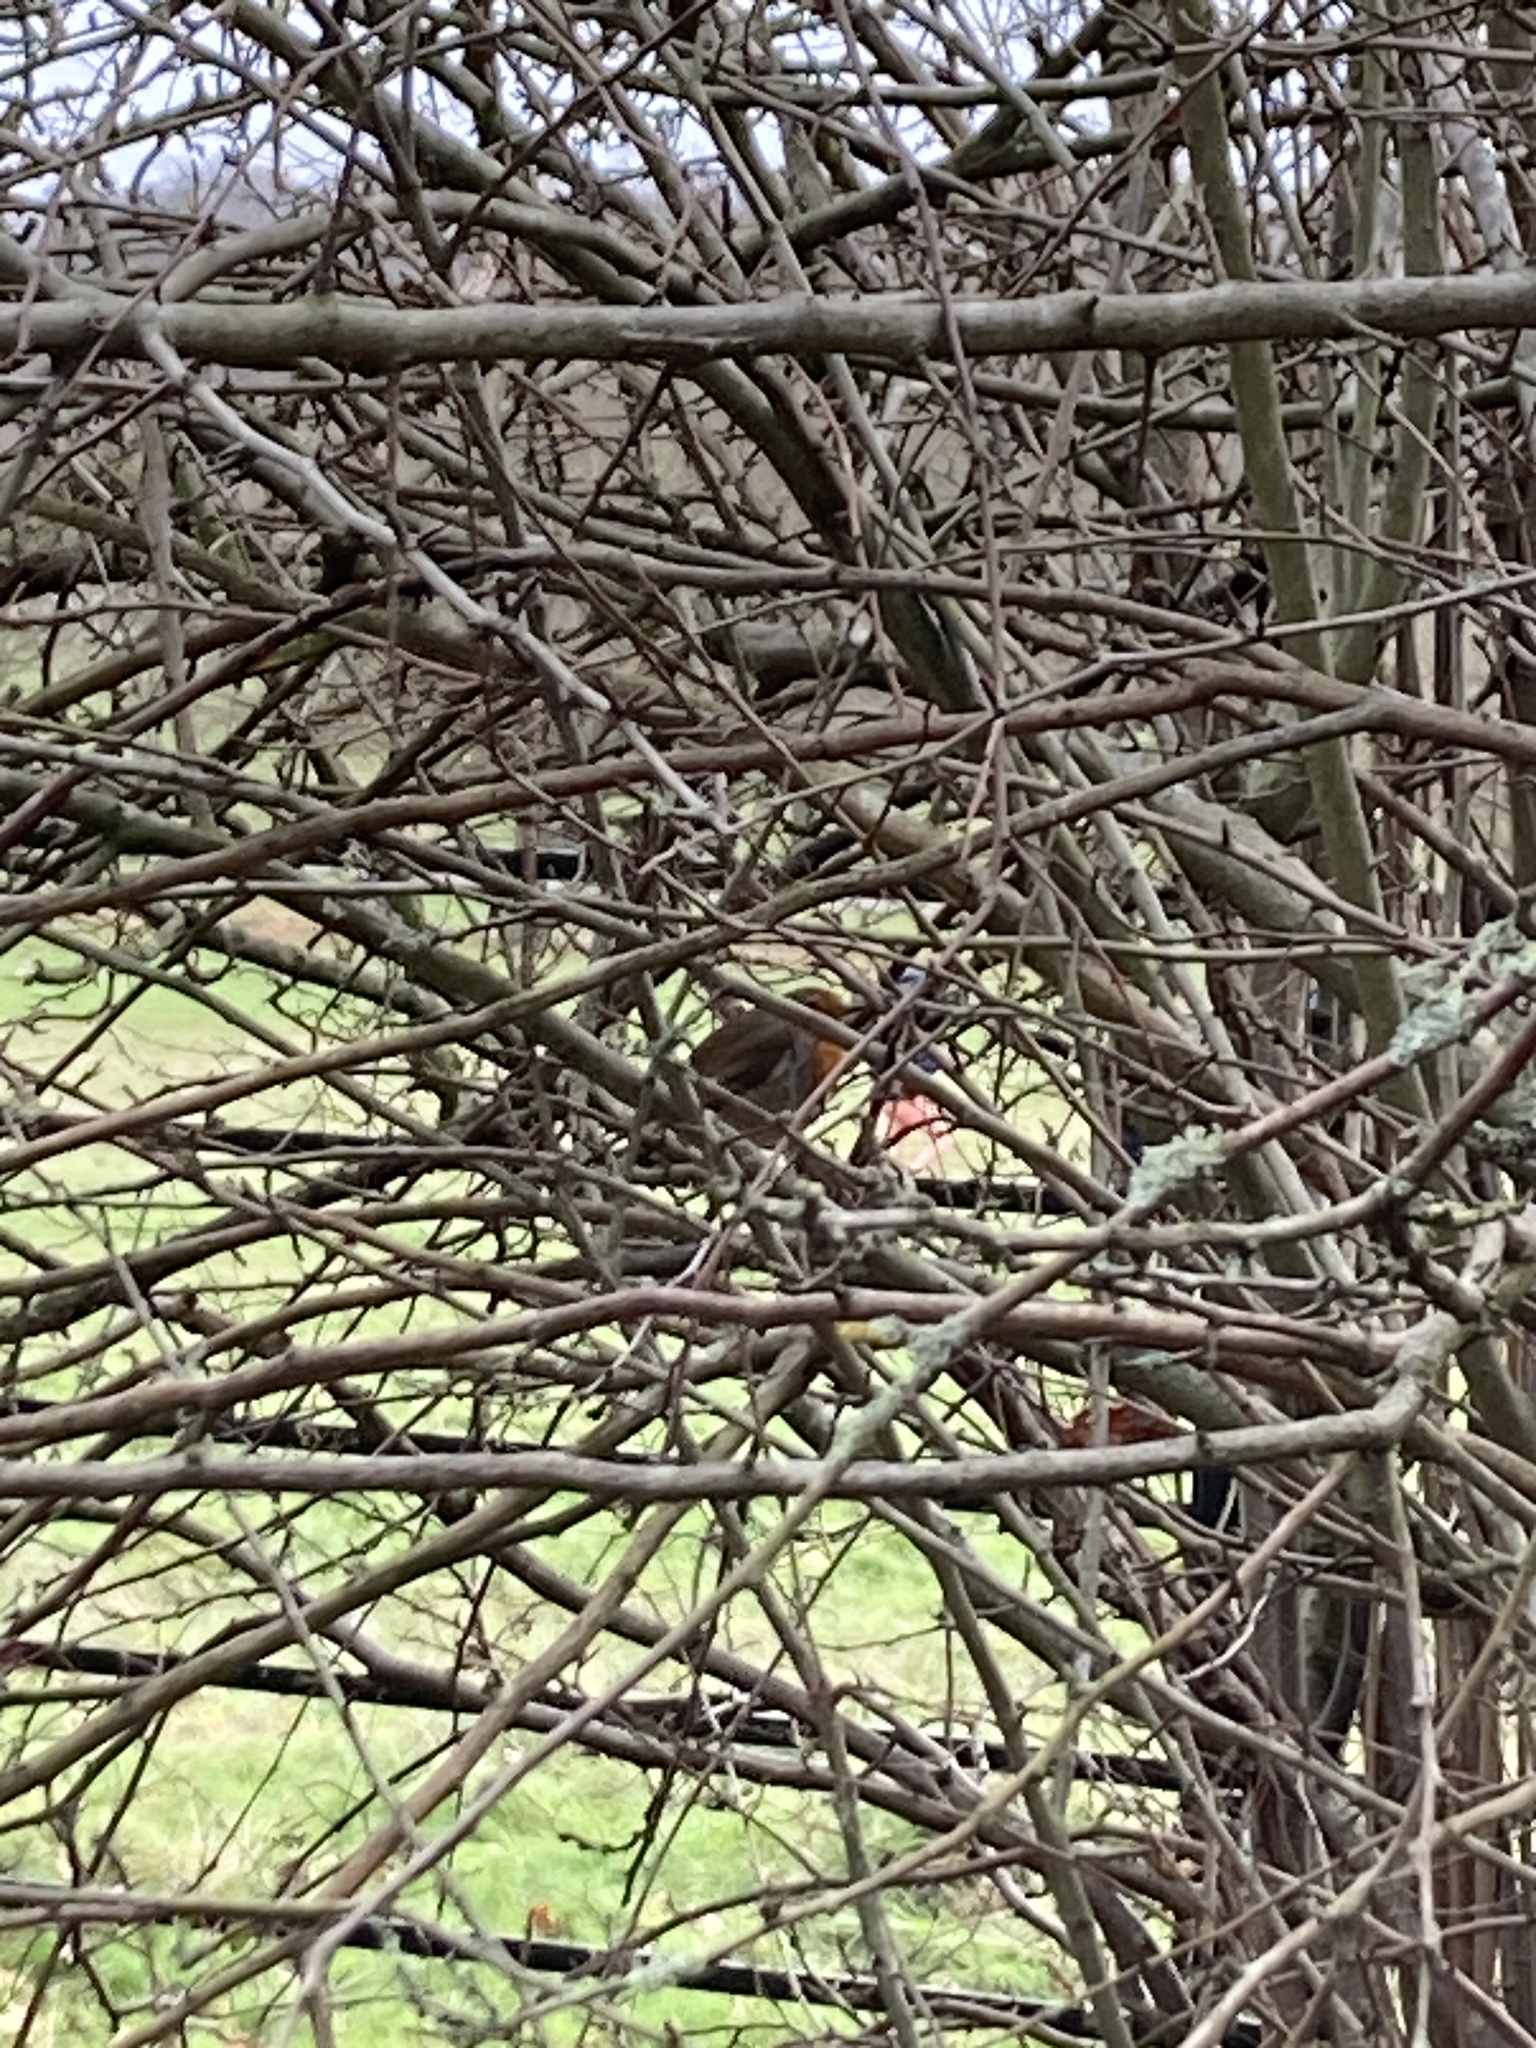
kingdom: Animalia
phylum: Chordata
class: Aves
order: Passeriformes
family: Muscicapidae
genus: Erithacus
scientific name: Erithacus rubecula
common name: European robin
